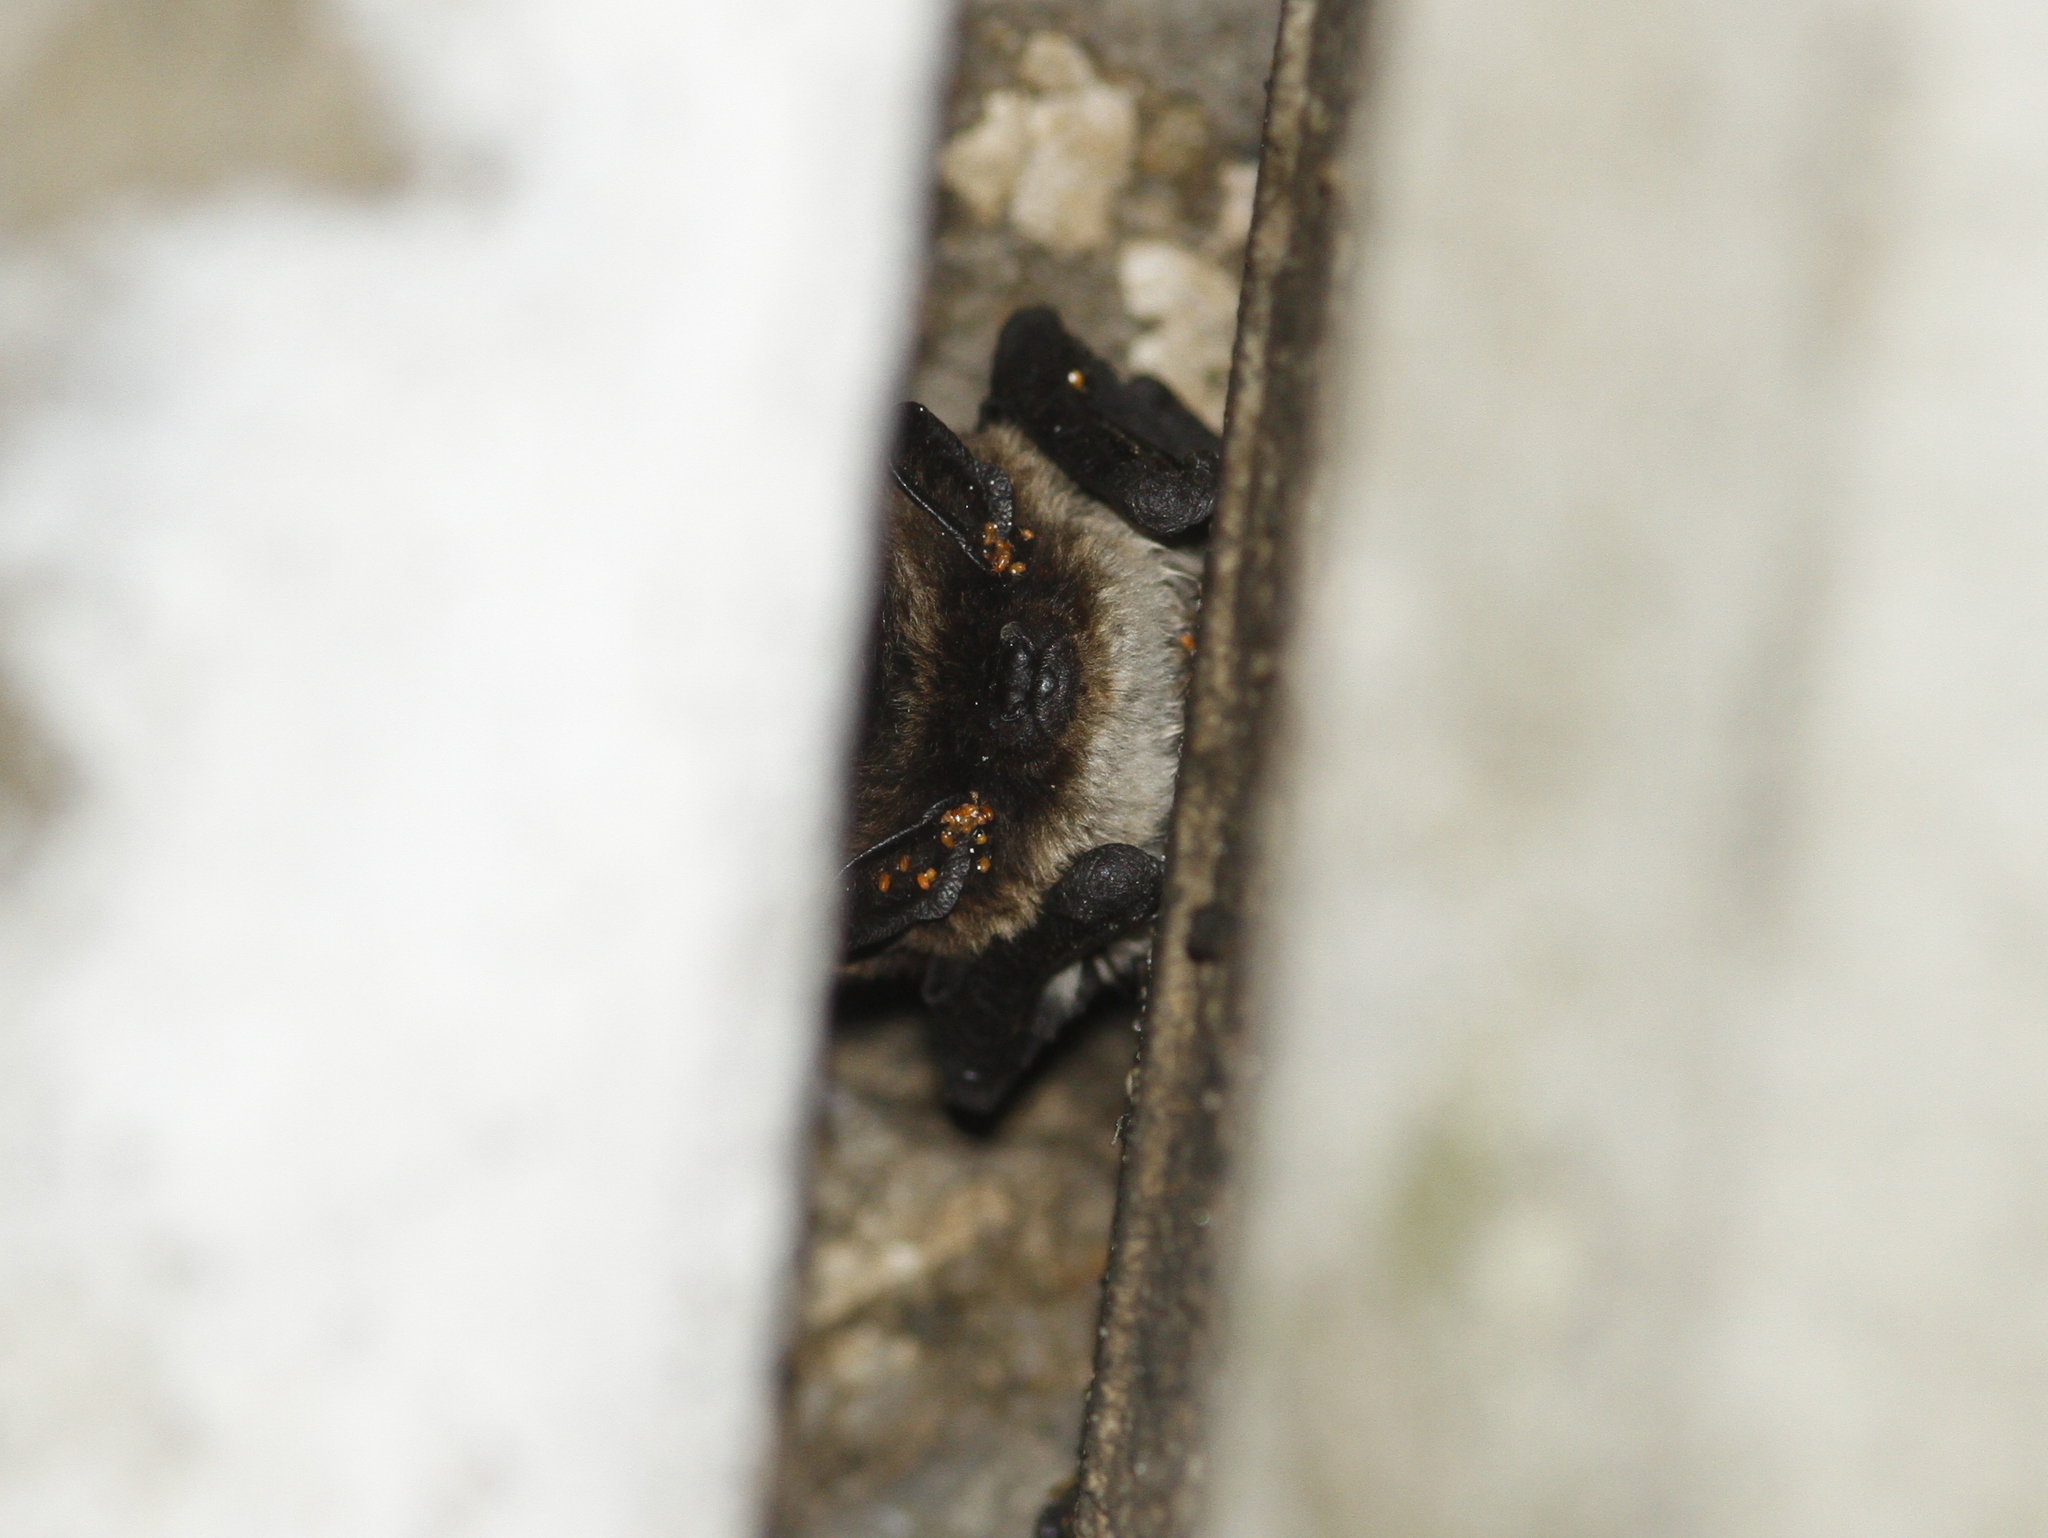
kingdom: Animalia
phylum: Chordata
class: Mammalia
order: Chiroptera
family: Vespertilionidae
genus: Hypsugo
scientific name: Hypsugo savii
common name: Savi's pipistrelle
